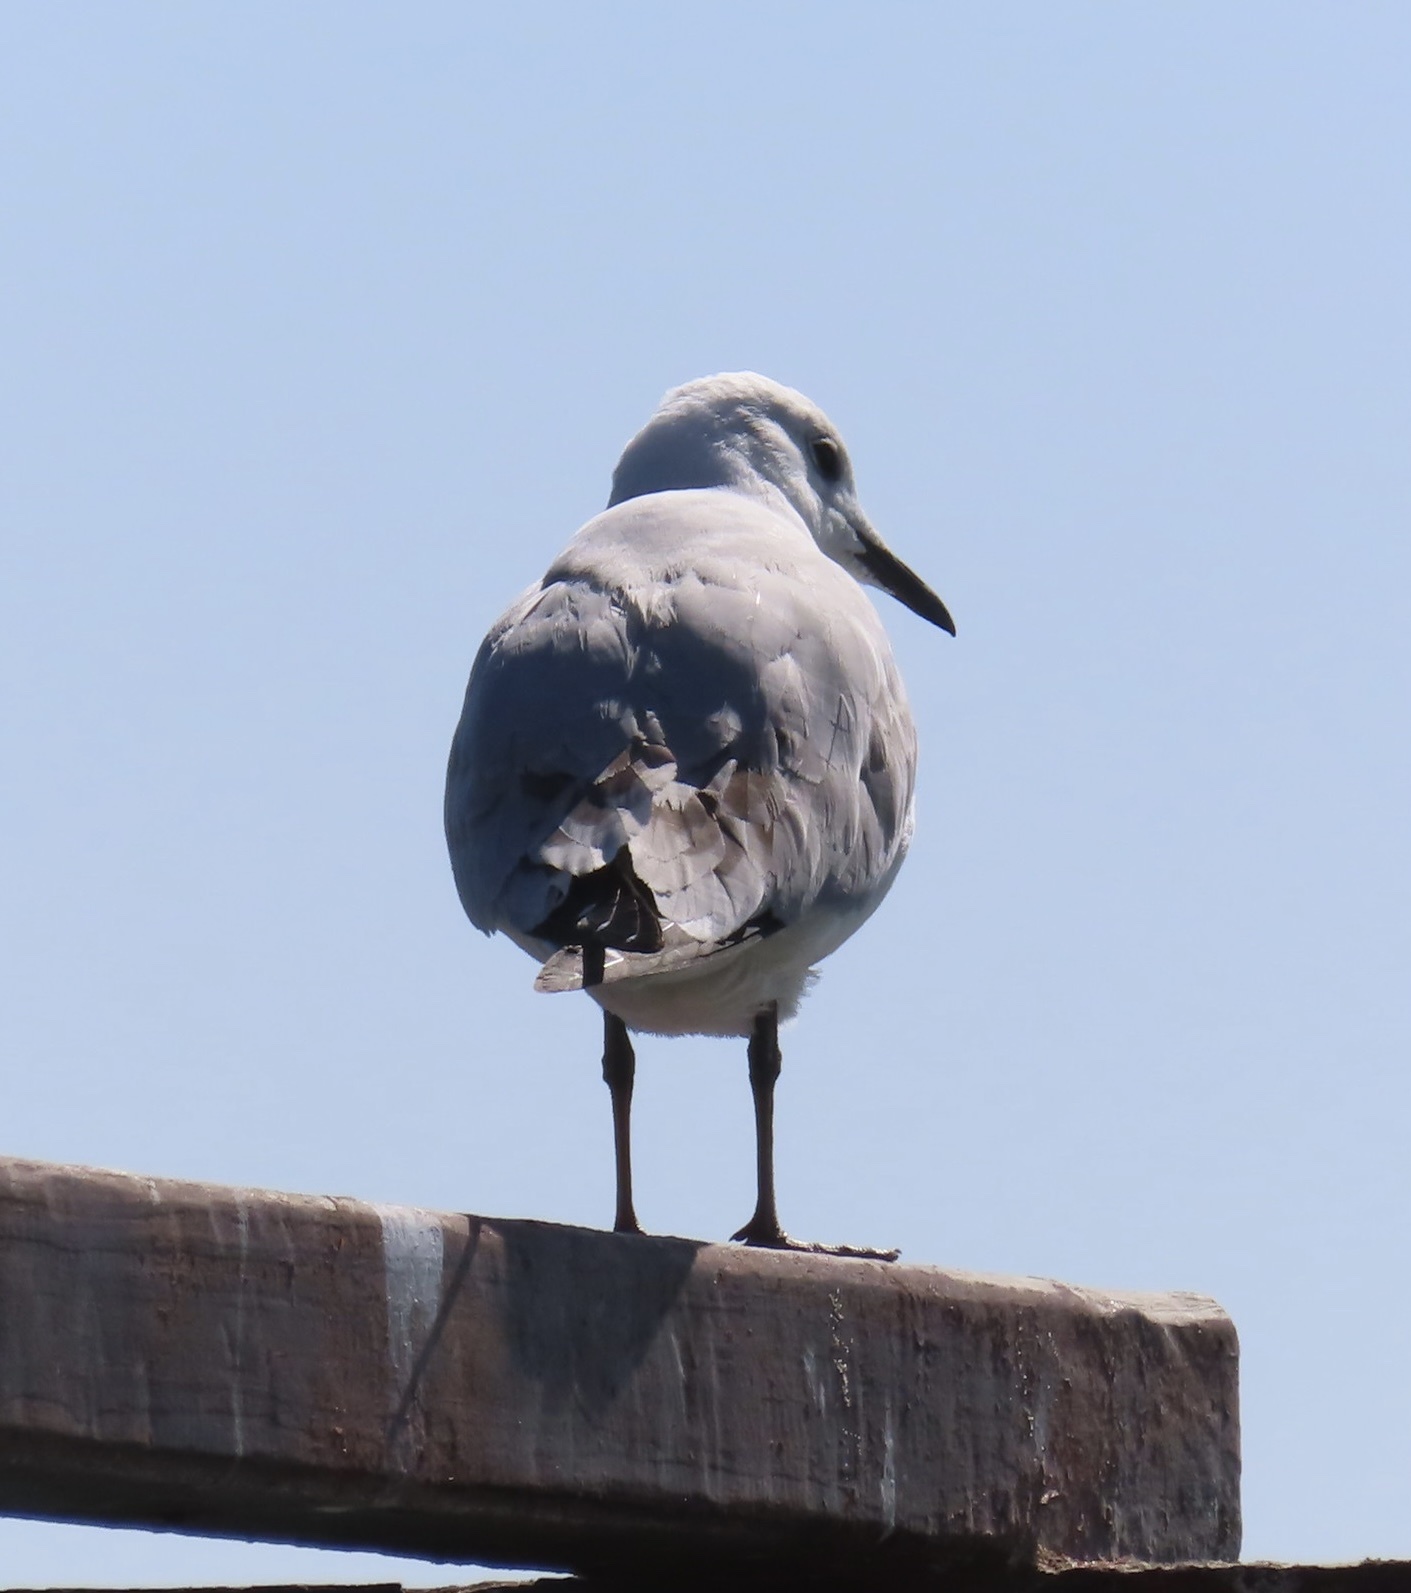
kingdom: Animalia
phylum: Chordata
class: Aves
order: Charadriiformes
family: Laridae
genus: Chroicocephalus
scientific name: Chroicocephalus hartlaubii
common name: Hartlaub's gull
